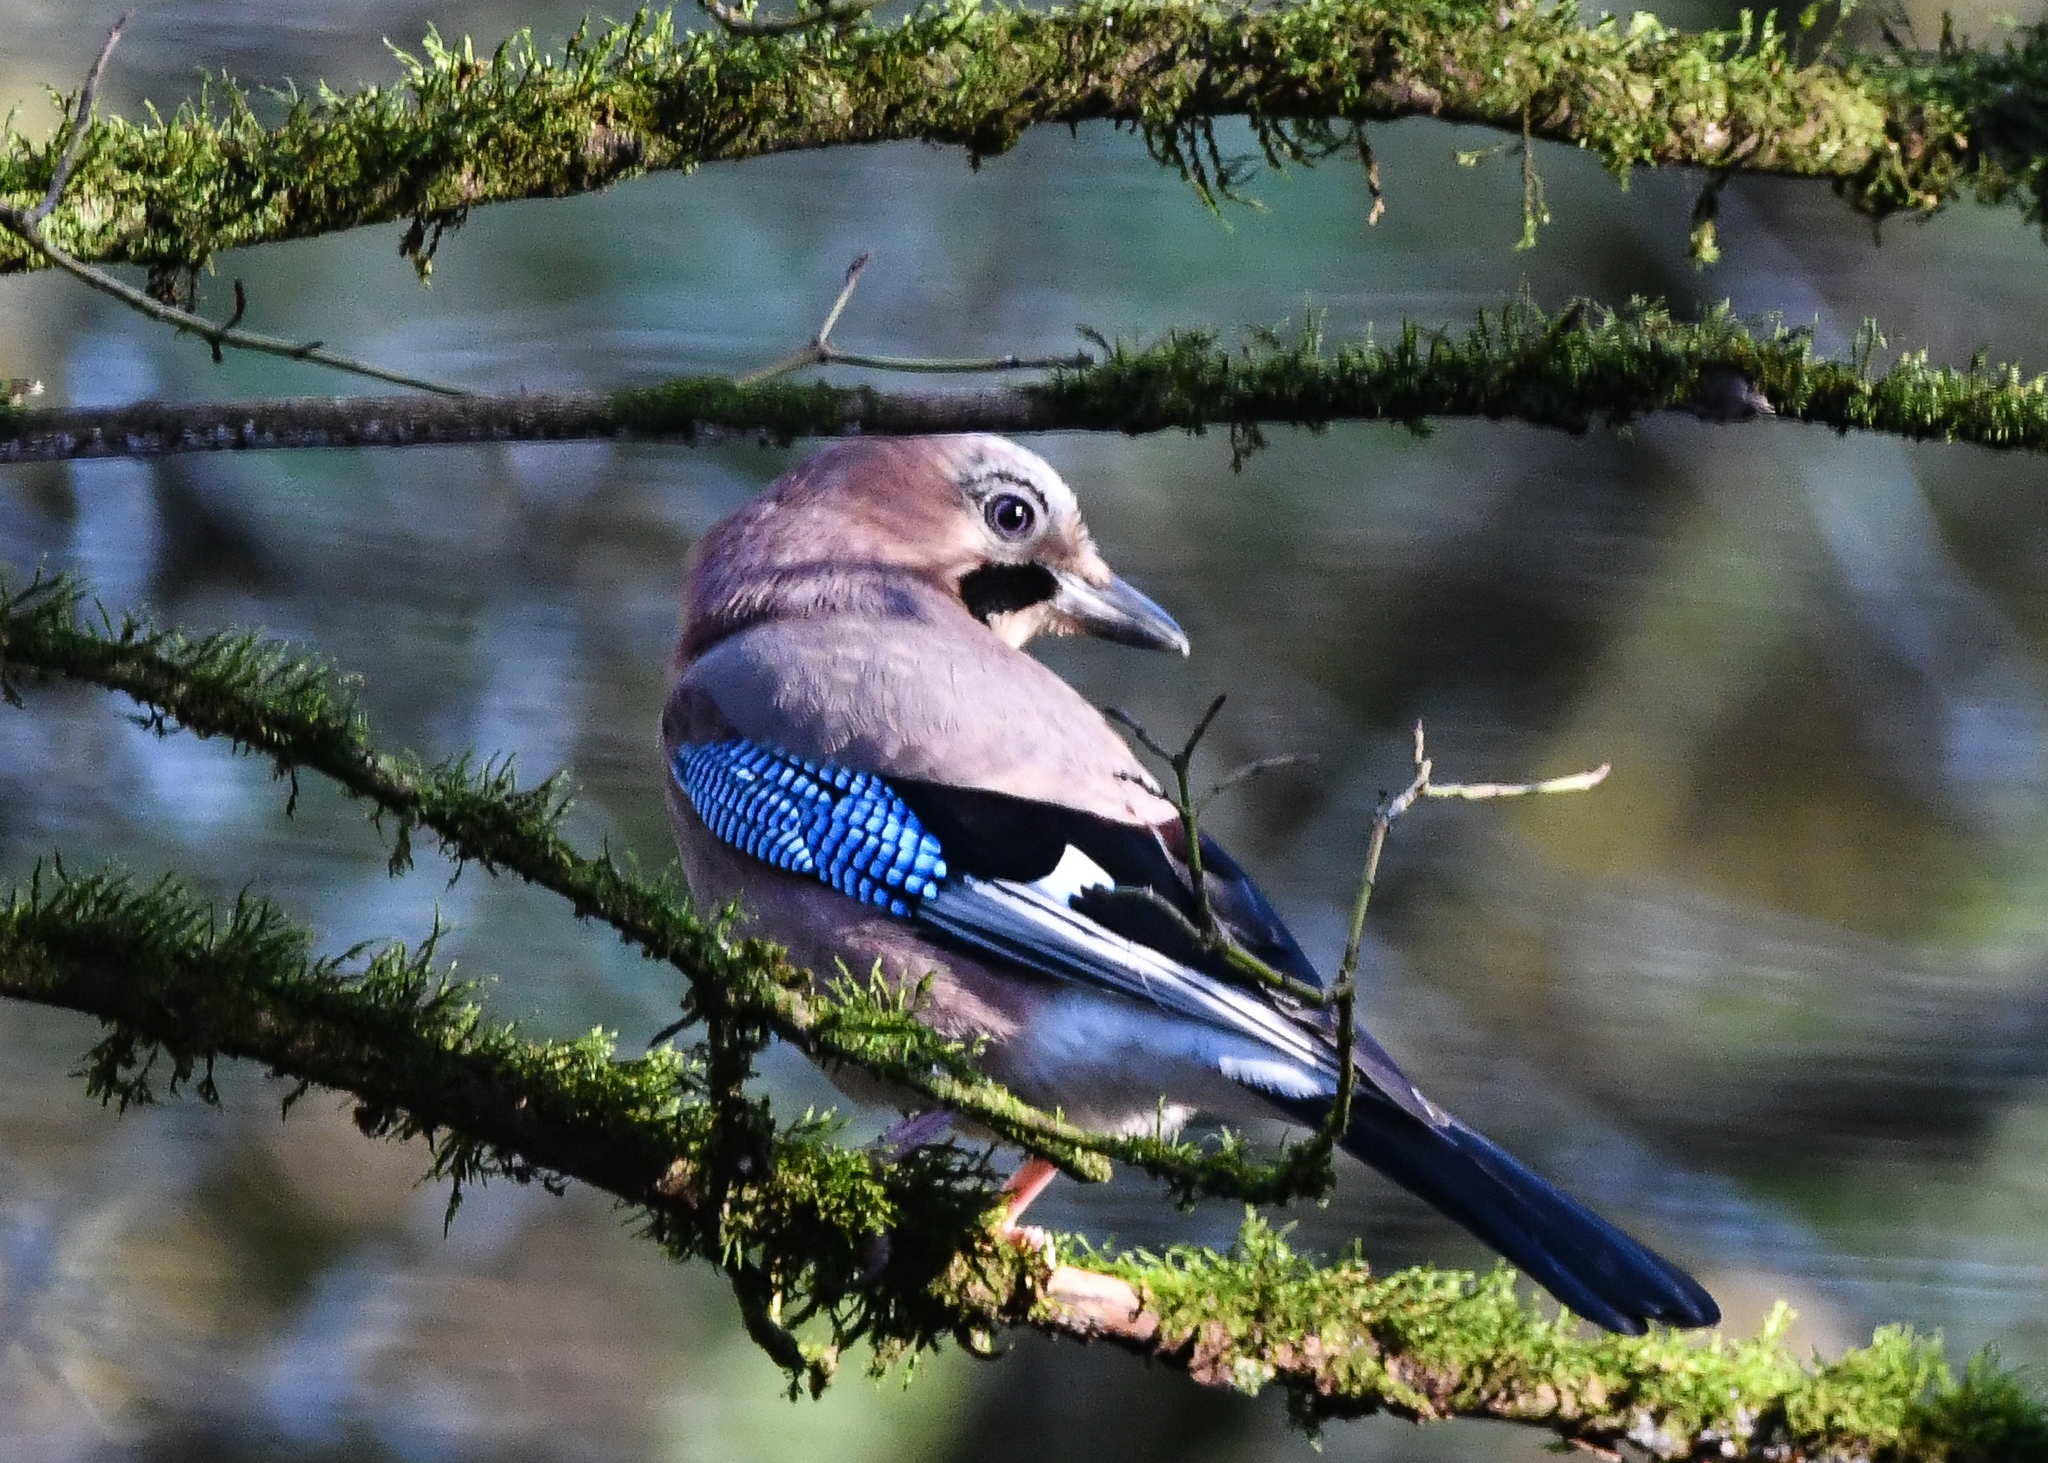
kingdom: Animalia
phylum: Chordata
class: Aves
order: Passeriformes
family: Corvidae
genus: Garrulus
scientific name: Garrulus glandarius
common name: Eurasian jay
